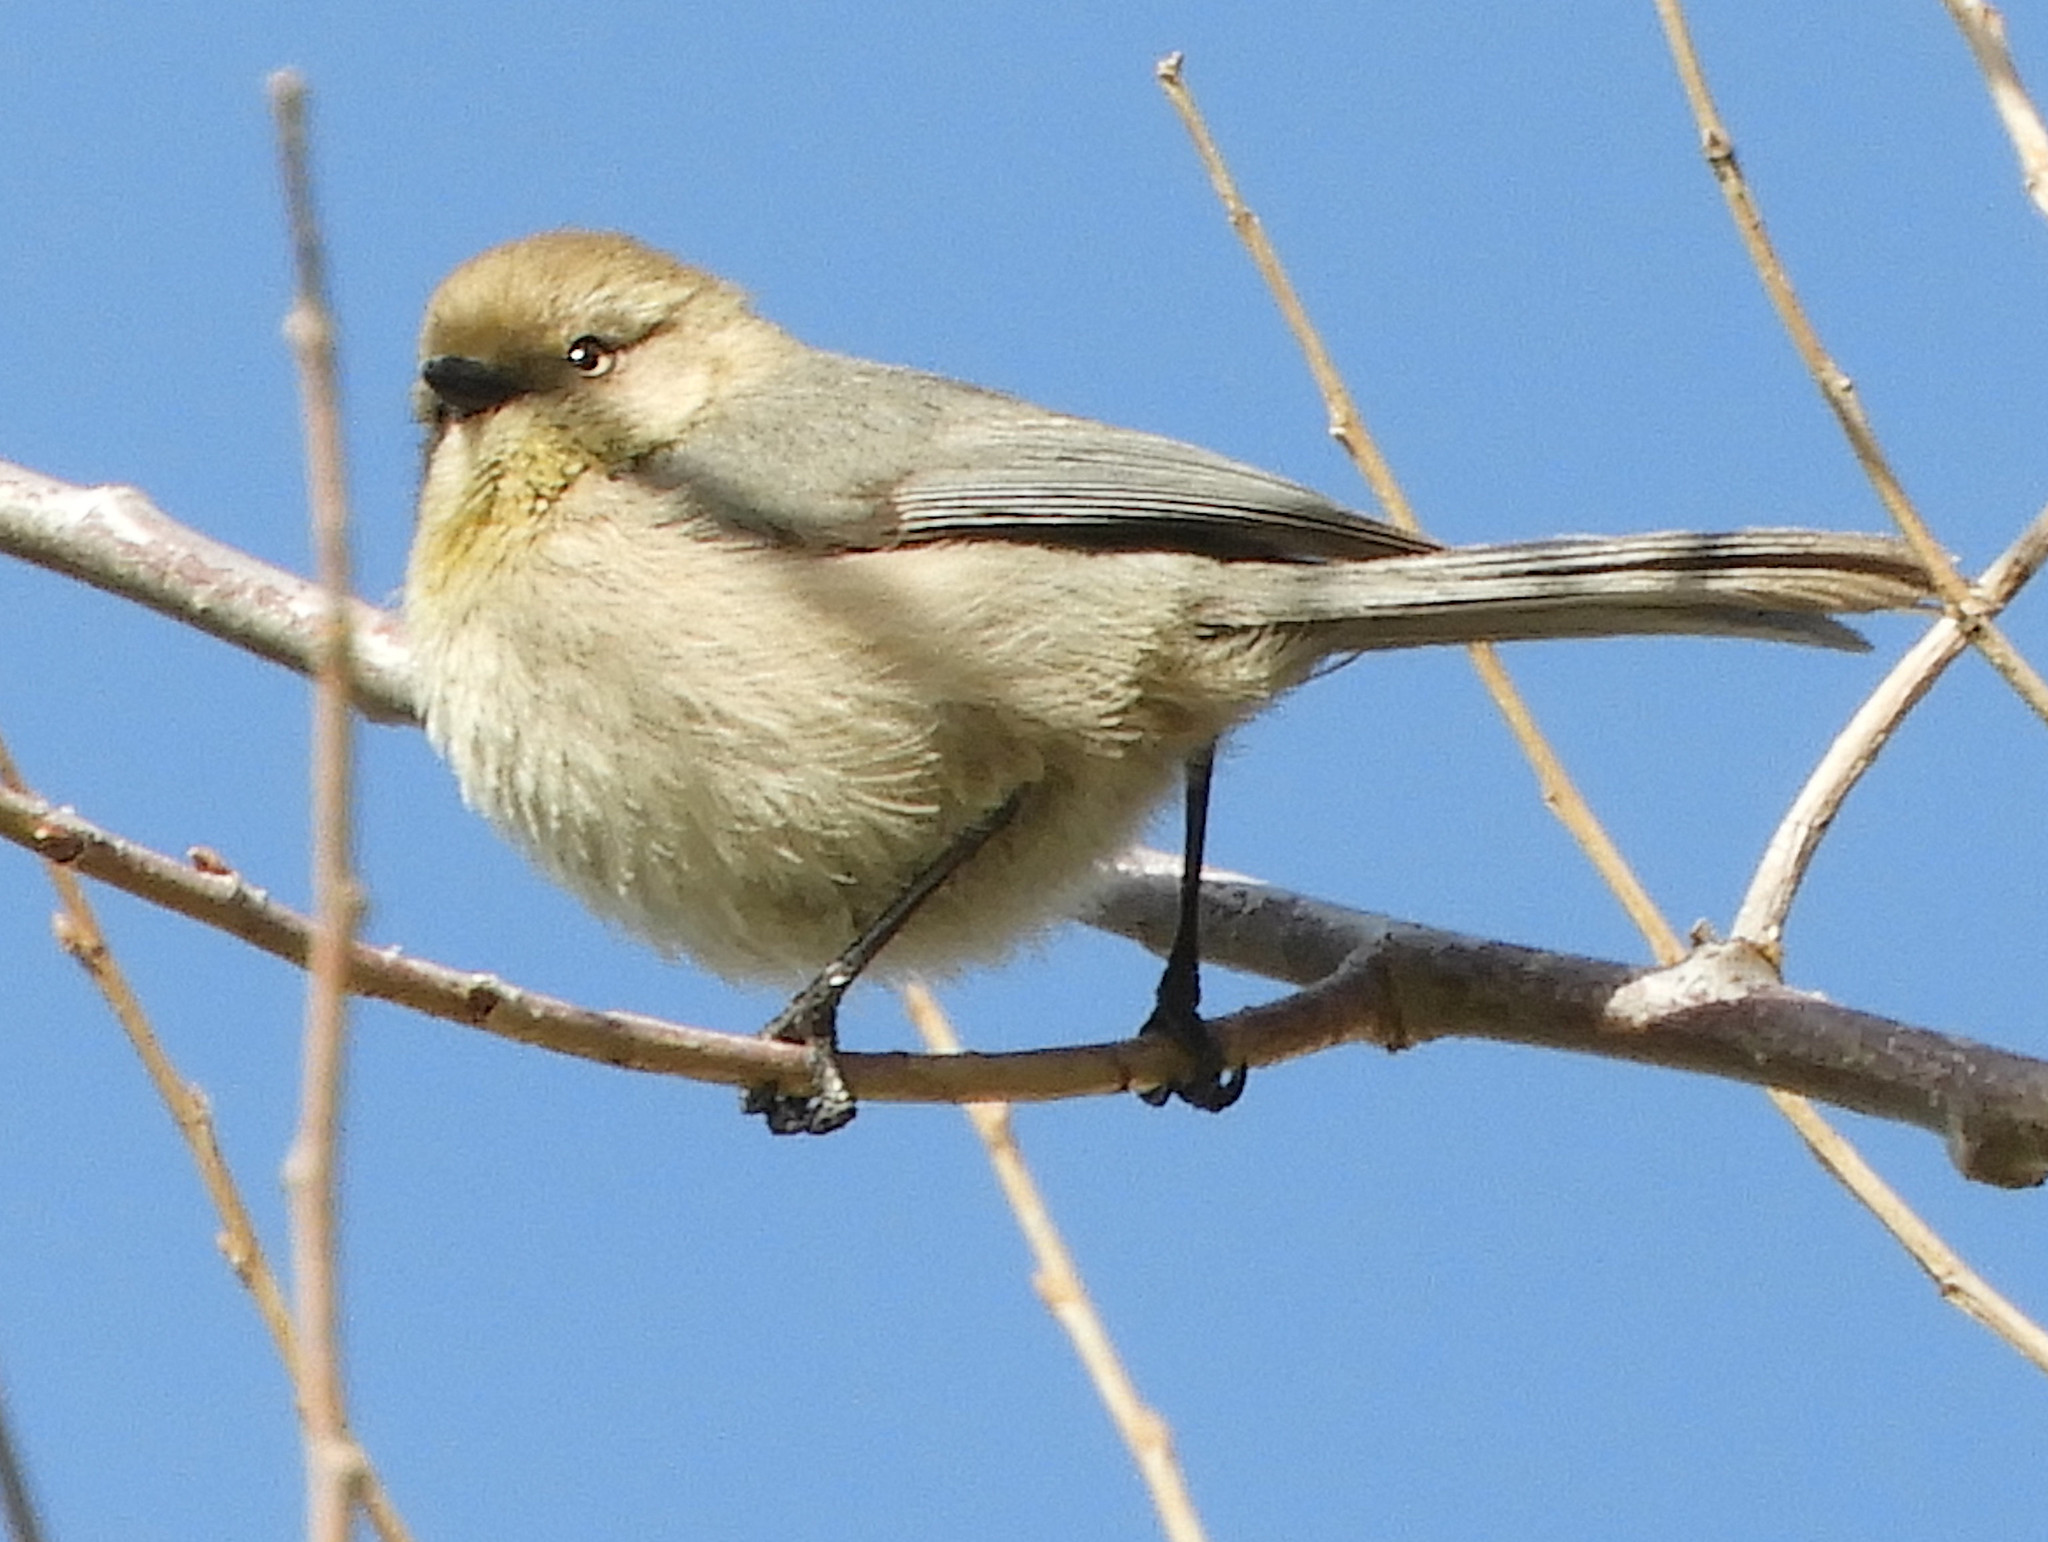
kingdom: Animalia
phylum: Chordata
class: Aves
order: Passeriformes
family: Aegithalidae
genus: Psaltriparus
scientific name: Psaltriparus minimus
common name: American bushtit
